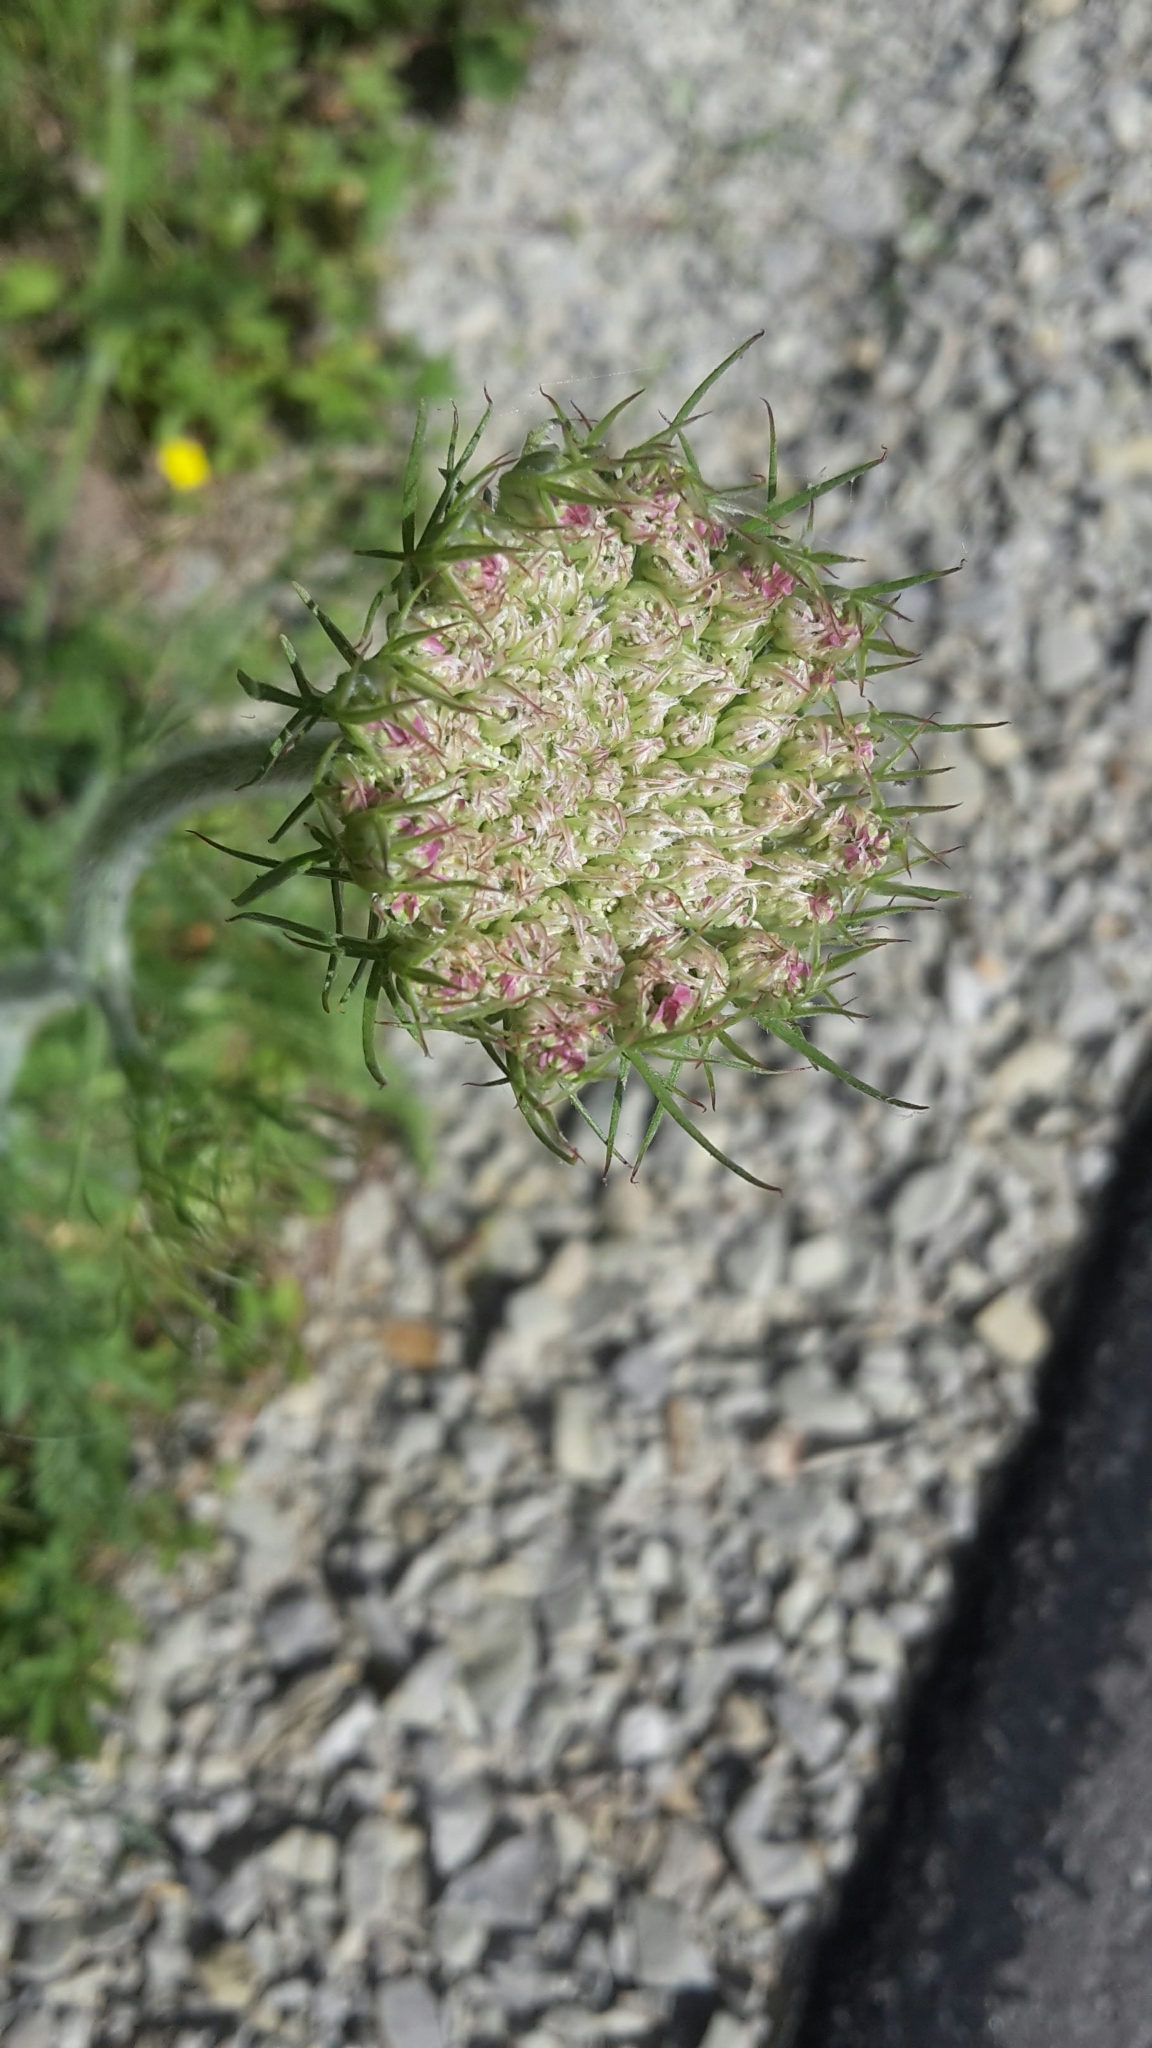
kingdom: Plantae
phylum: Tracheophyta
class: Magnoliopsida
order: Apiales
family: Apiaceae
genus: Daucus
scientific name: Daucus carota
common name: Wild carrot
